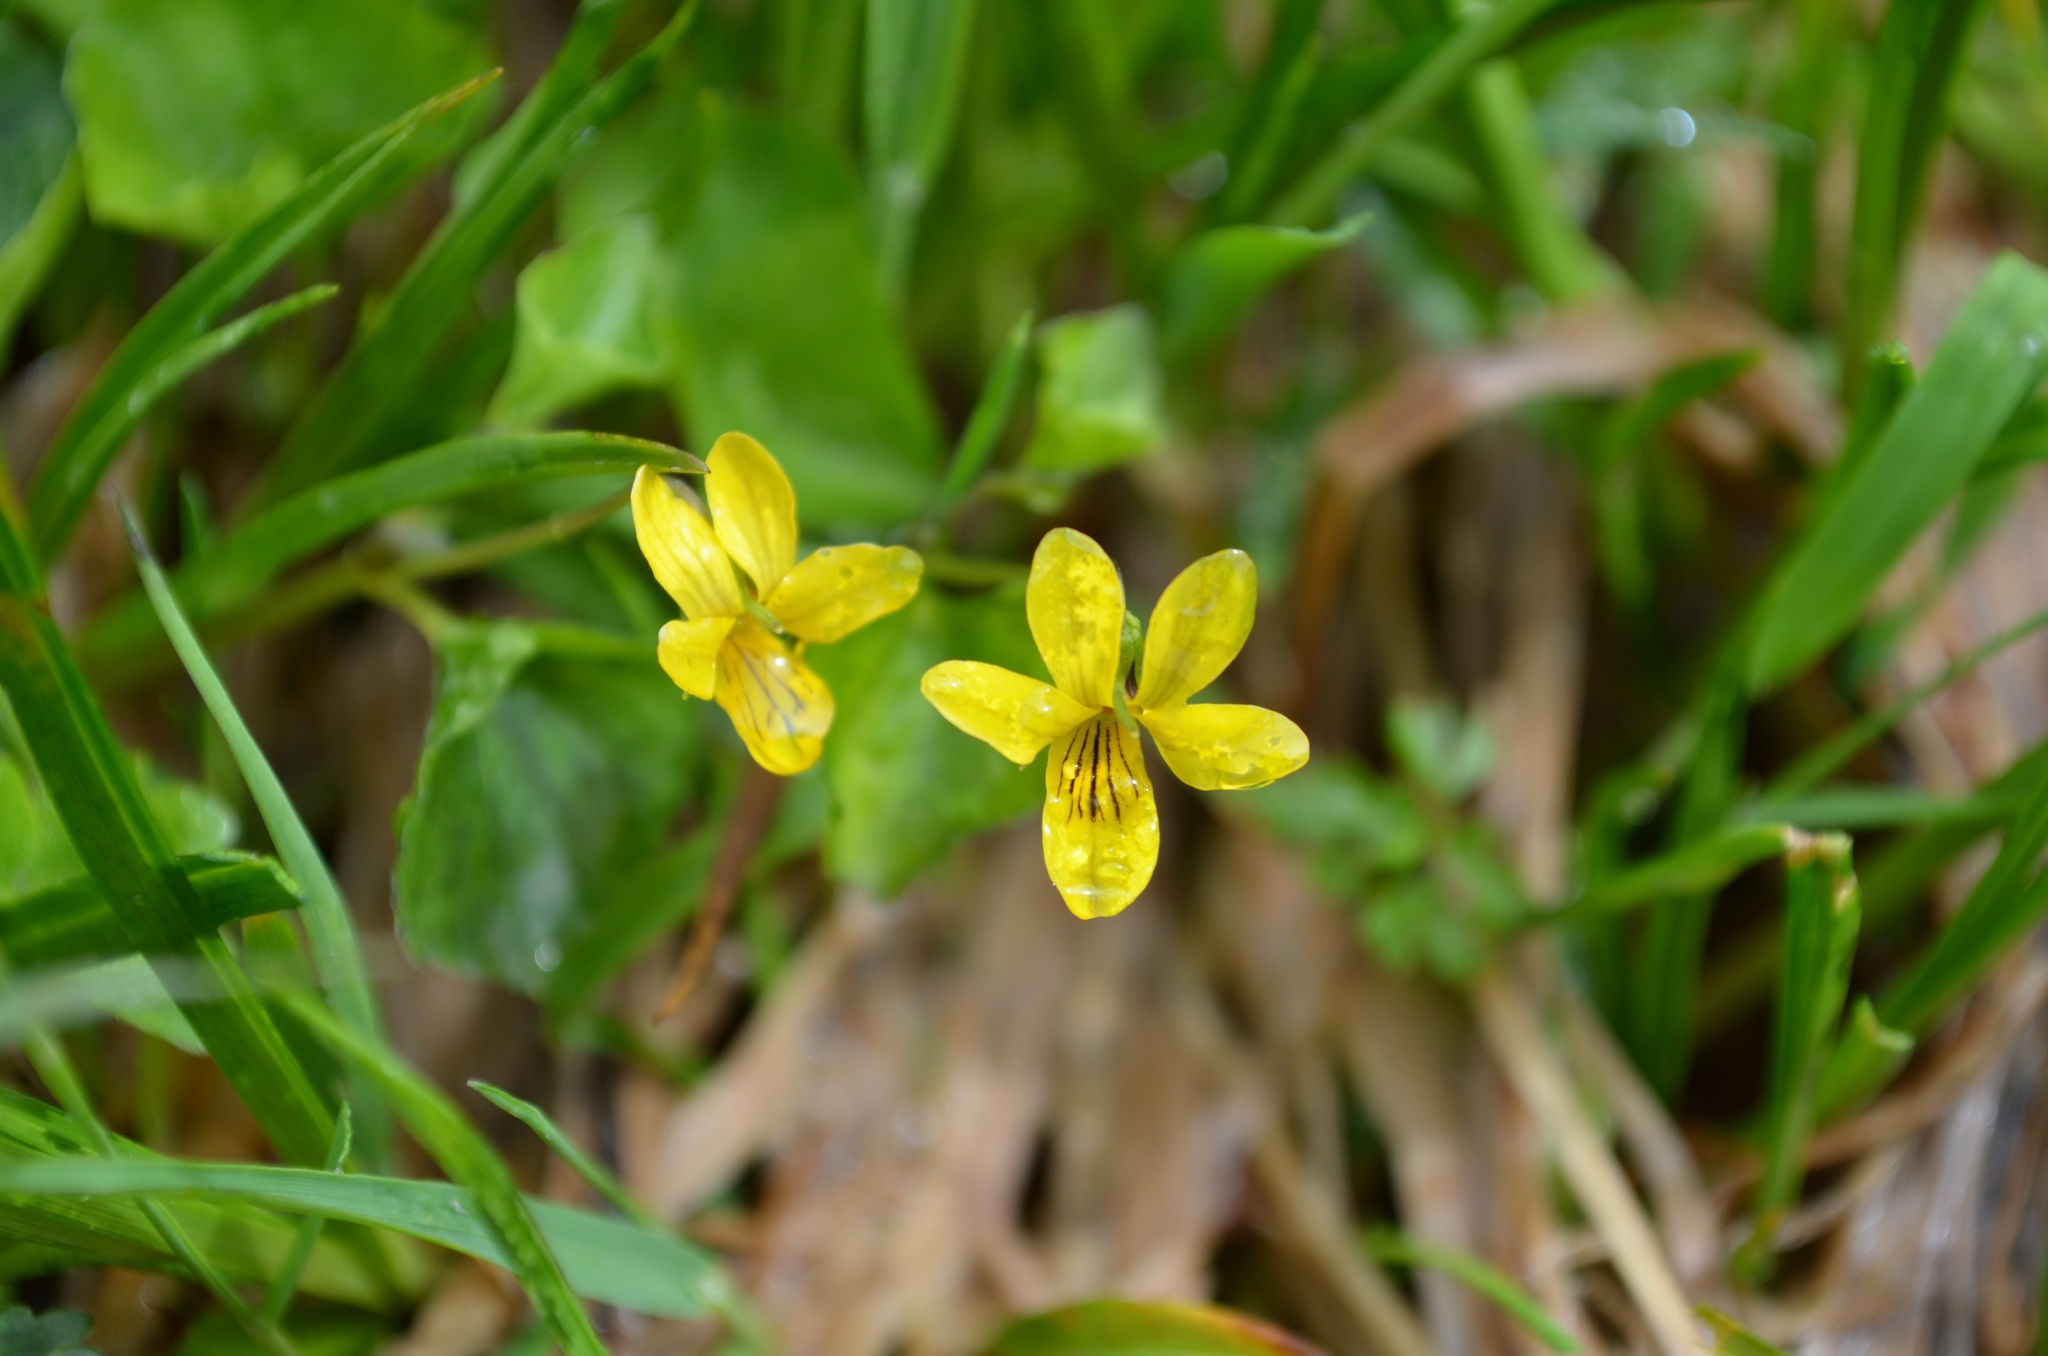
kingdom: Plantae
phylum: Tracheophyta
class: Magnoliopsida
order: Malpighiales
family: Violaceae
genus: Viola
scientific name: Viola biflora
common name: Alpine yellow violet
